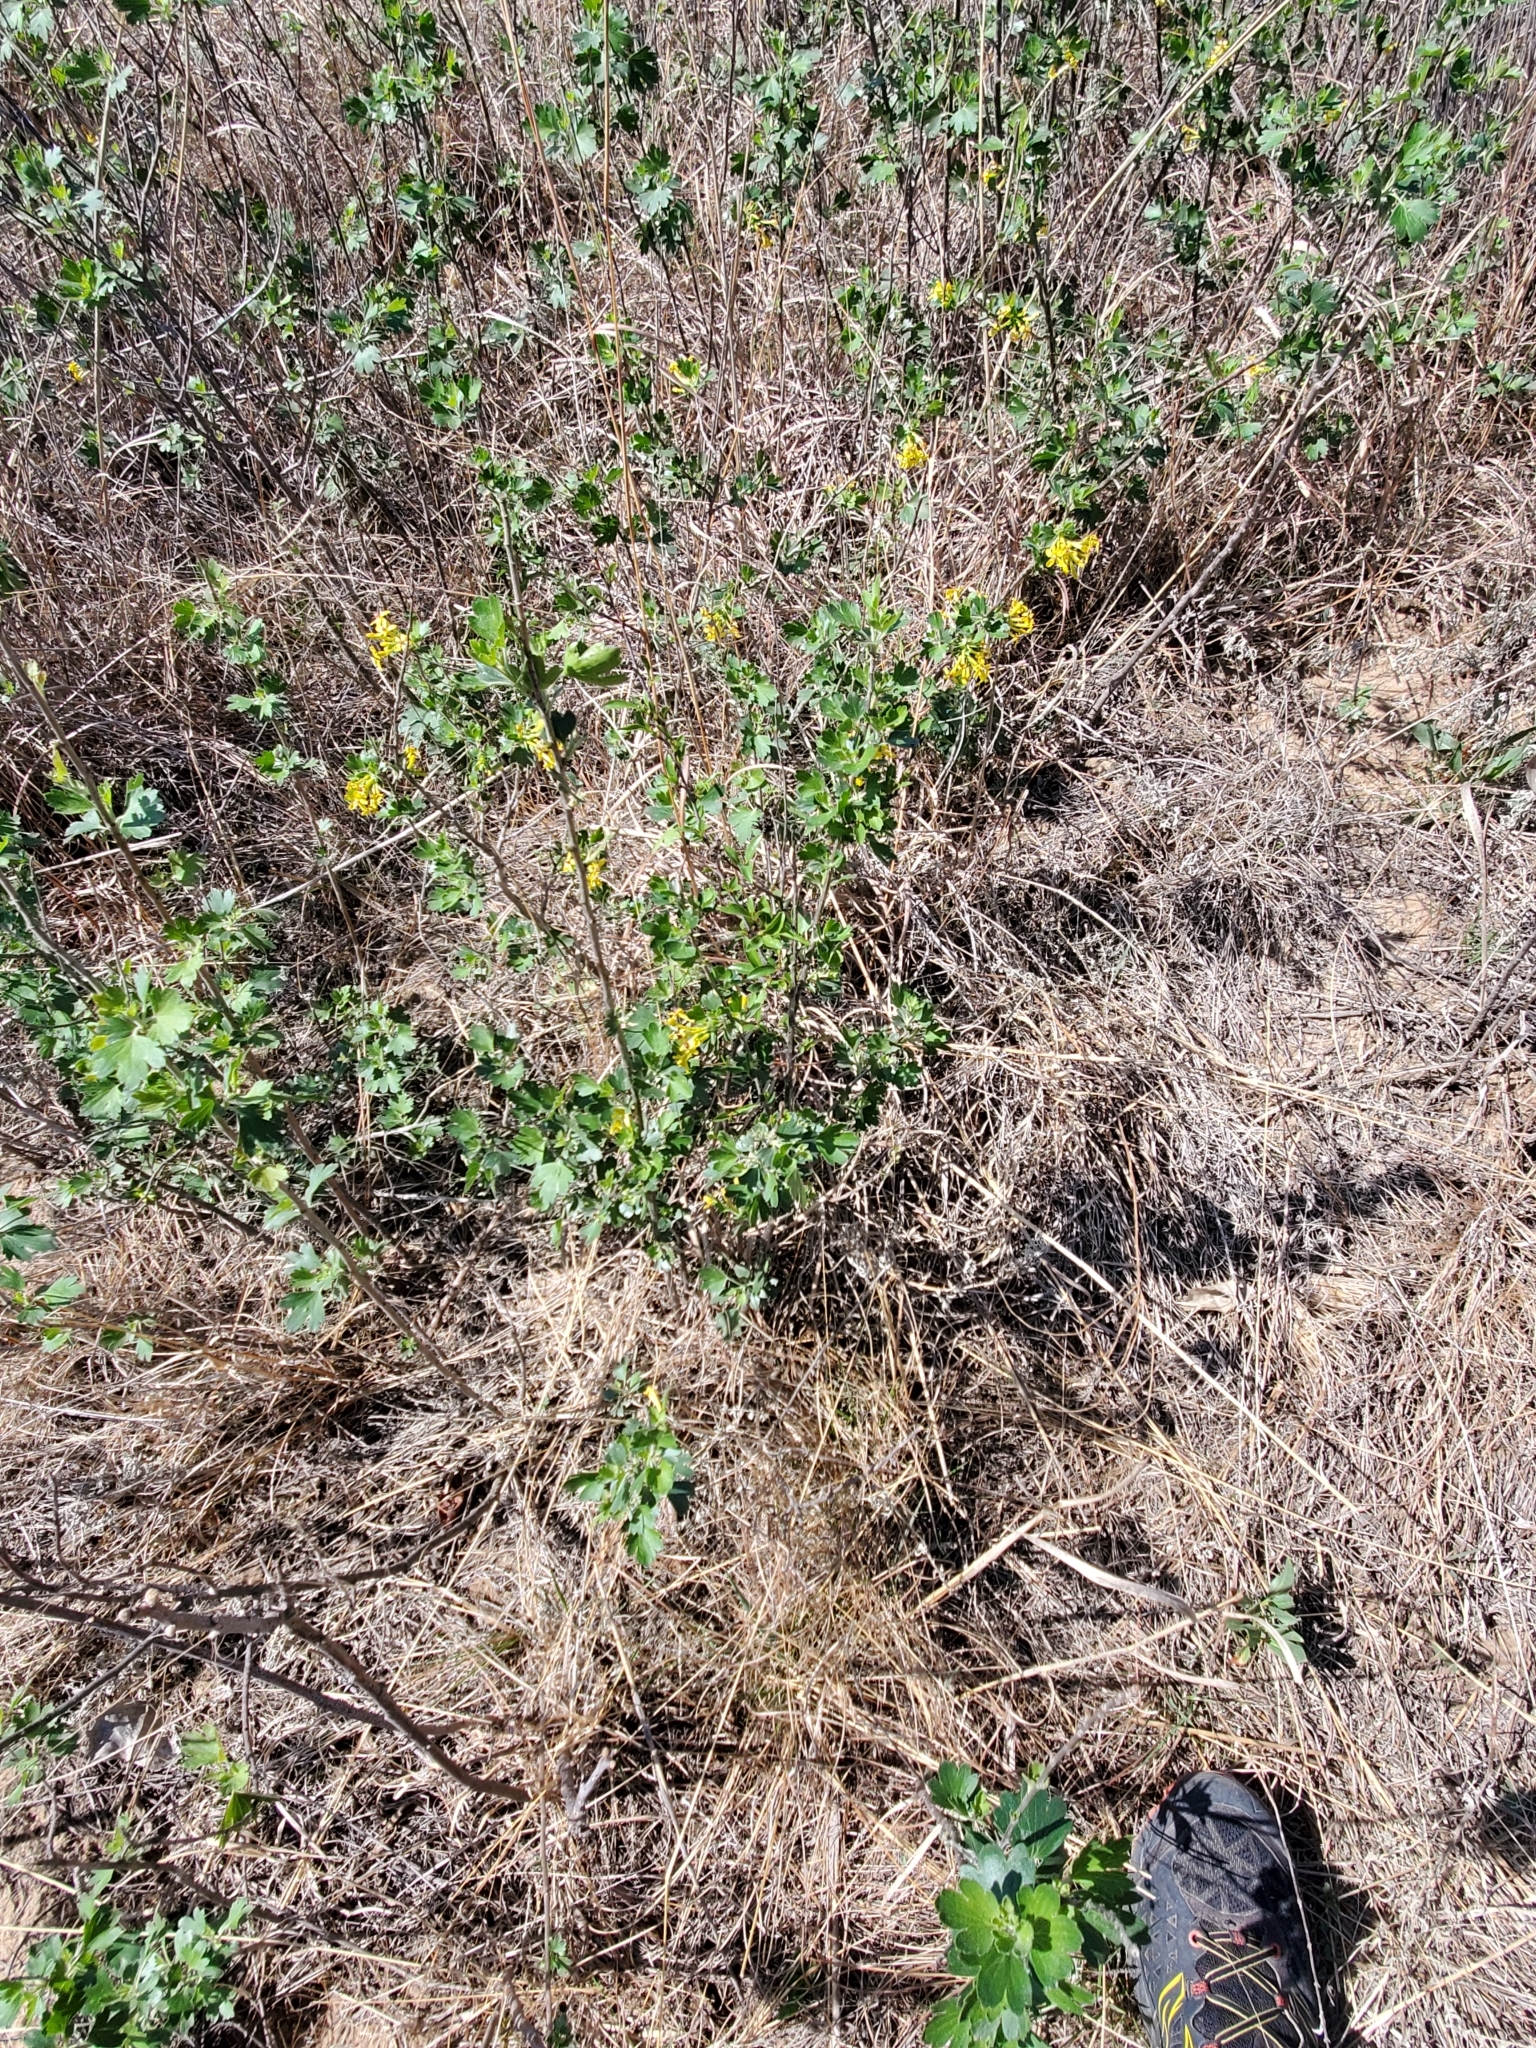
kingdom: Plantae
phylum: Tracheophyta
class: Magnoliopsida
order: Saxifragales
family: Grossulariaceae
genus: Ribes
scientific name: Ribes aureum
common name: Golden currant
